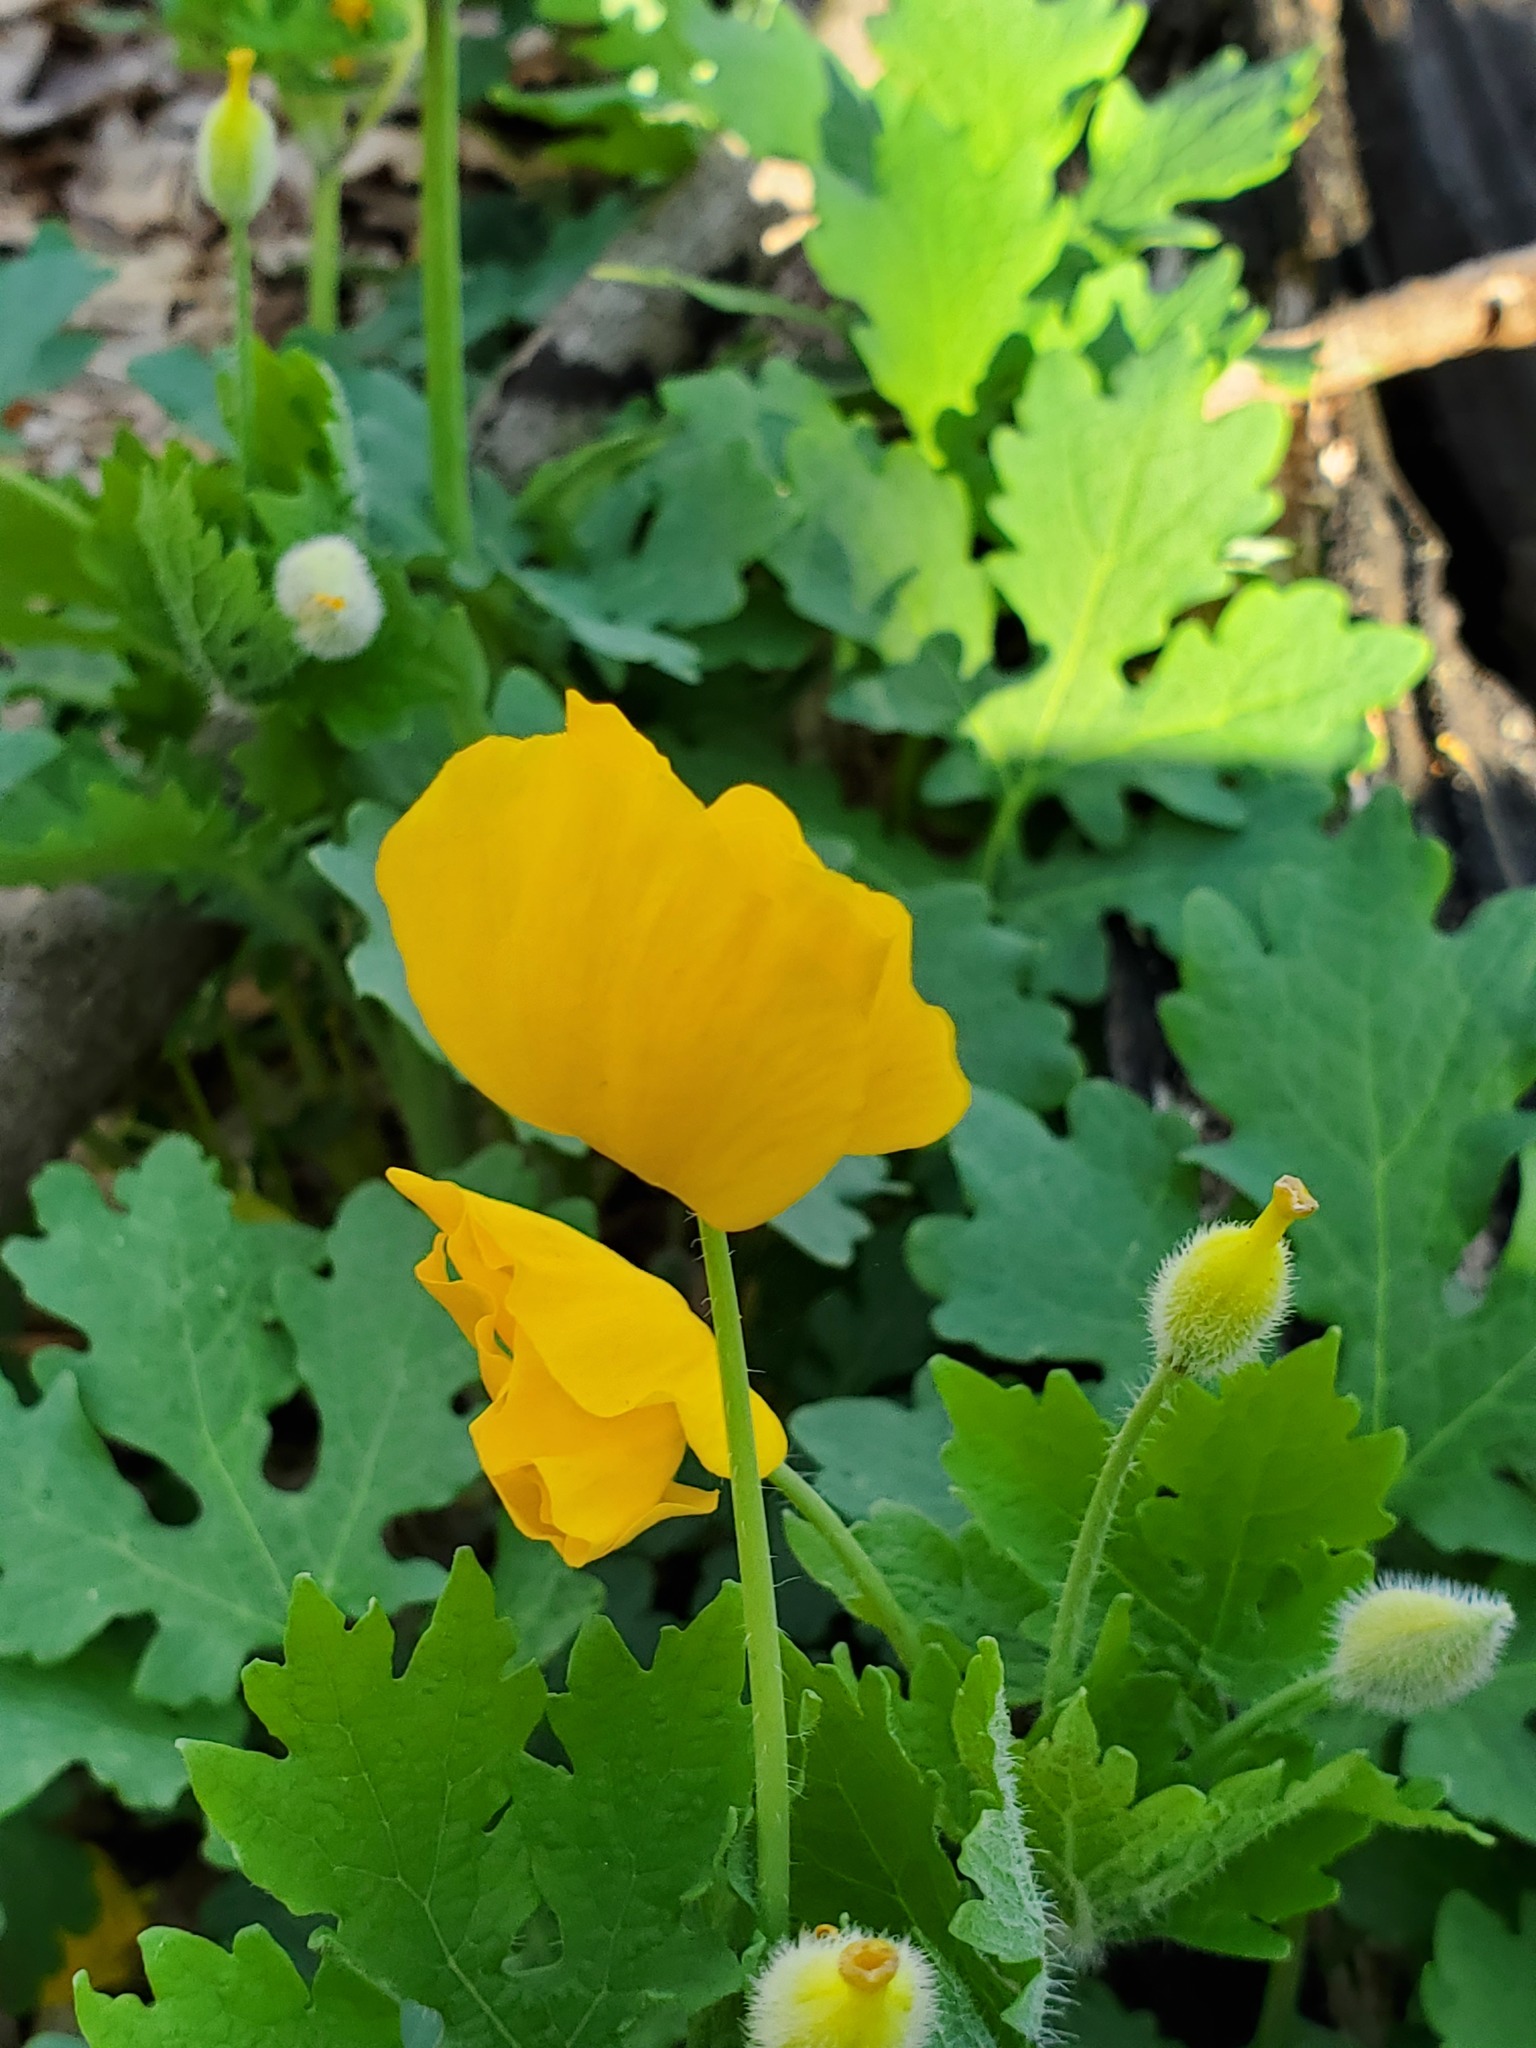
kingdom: Plantae
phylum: Tracheophyta
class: Magnoliopsida
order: Ranunculales
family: Papaveraceae
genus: Stylophorum
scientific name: Stylophorum diphyllum
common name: Celandine poppy
